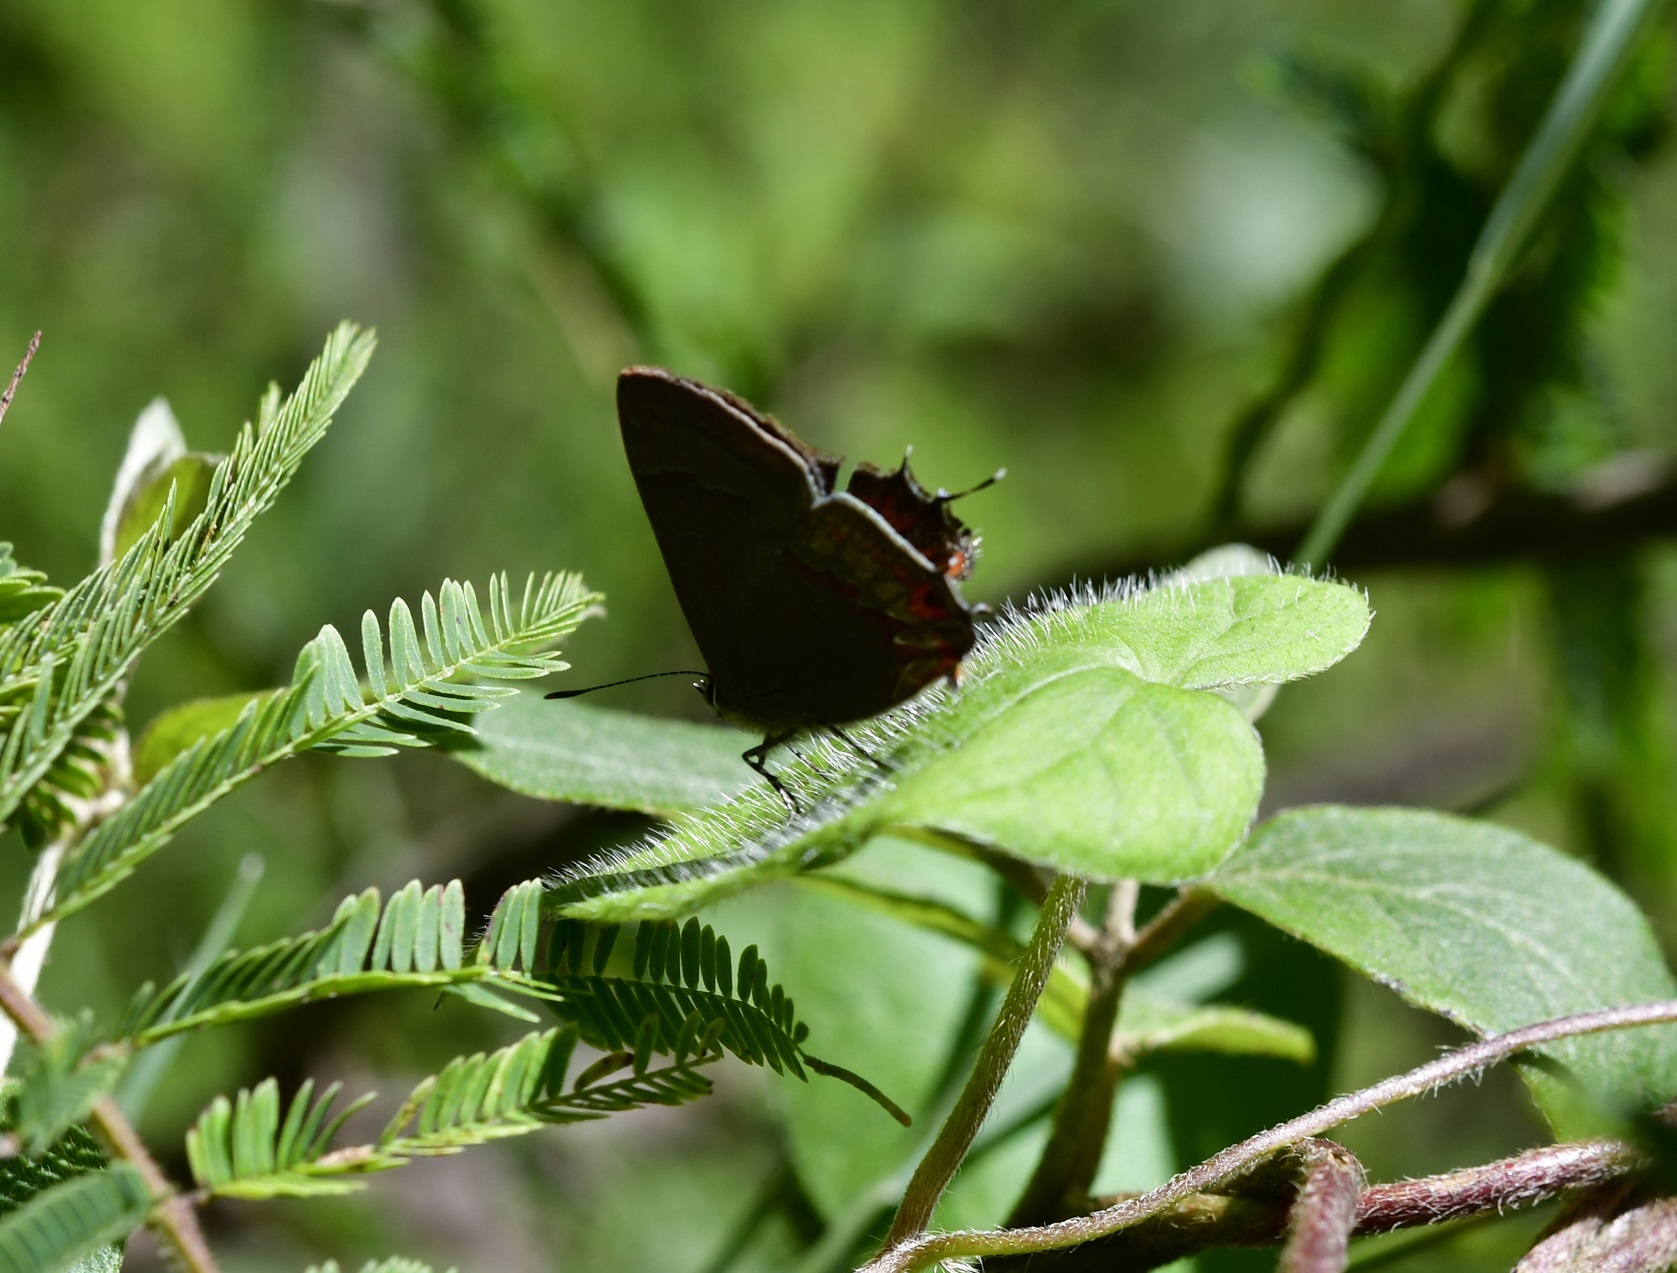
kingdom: Animalia
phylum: Arthropoda
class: Insecta
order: Lepidoptera
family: Lycaenidae
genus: Electrostrymon
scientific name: Electrostrymon
